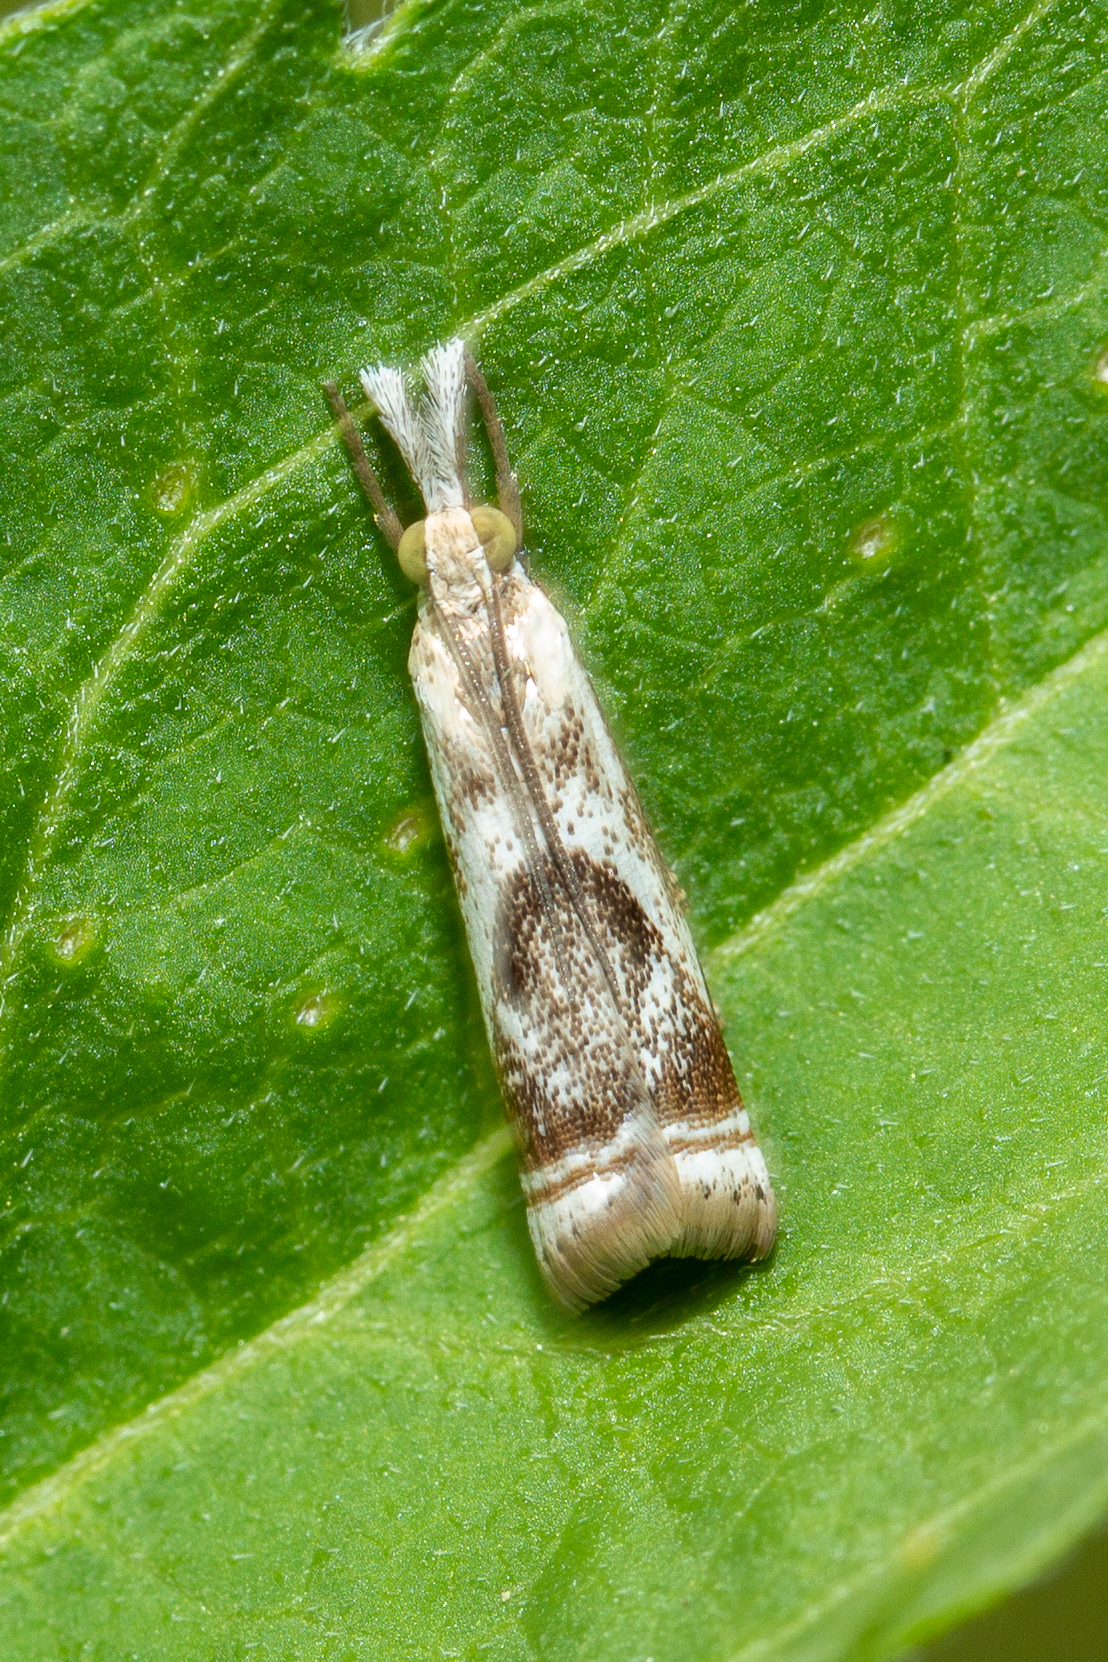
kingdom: Animalia
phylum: Arthropoda
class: Insecta
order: Lepidoptera
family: Crambidae
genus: Microcrambus
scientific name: Microcrambus elegans
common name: Elegant grass-veneer
